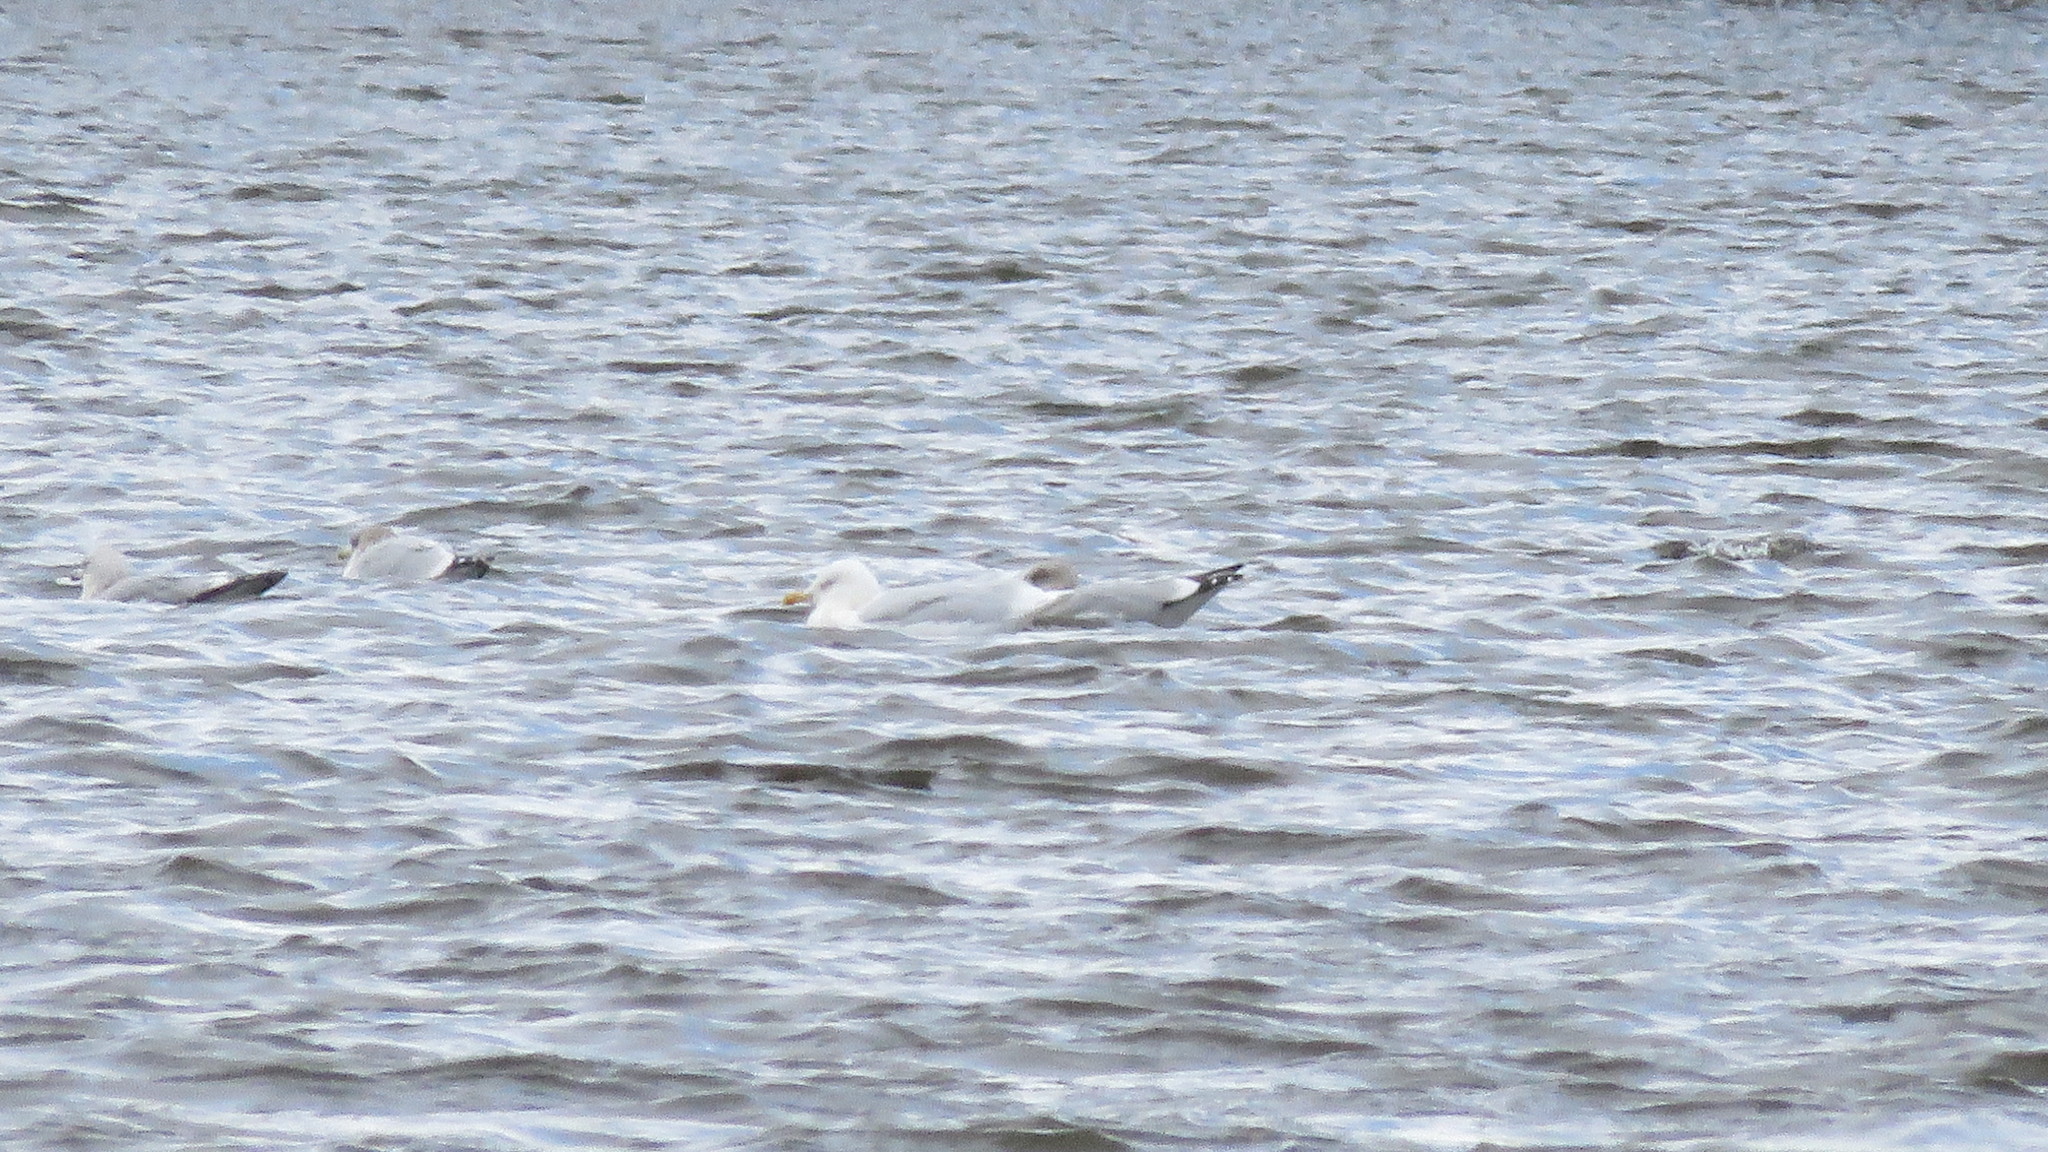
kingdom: Animalia
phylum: Chordata
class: Aves
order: Charadriiformes
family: Laridae
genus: Larus
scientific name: Larus hyperboreus
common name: Glaucous gull
